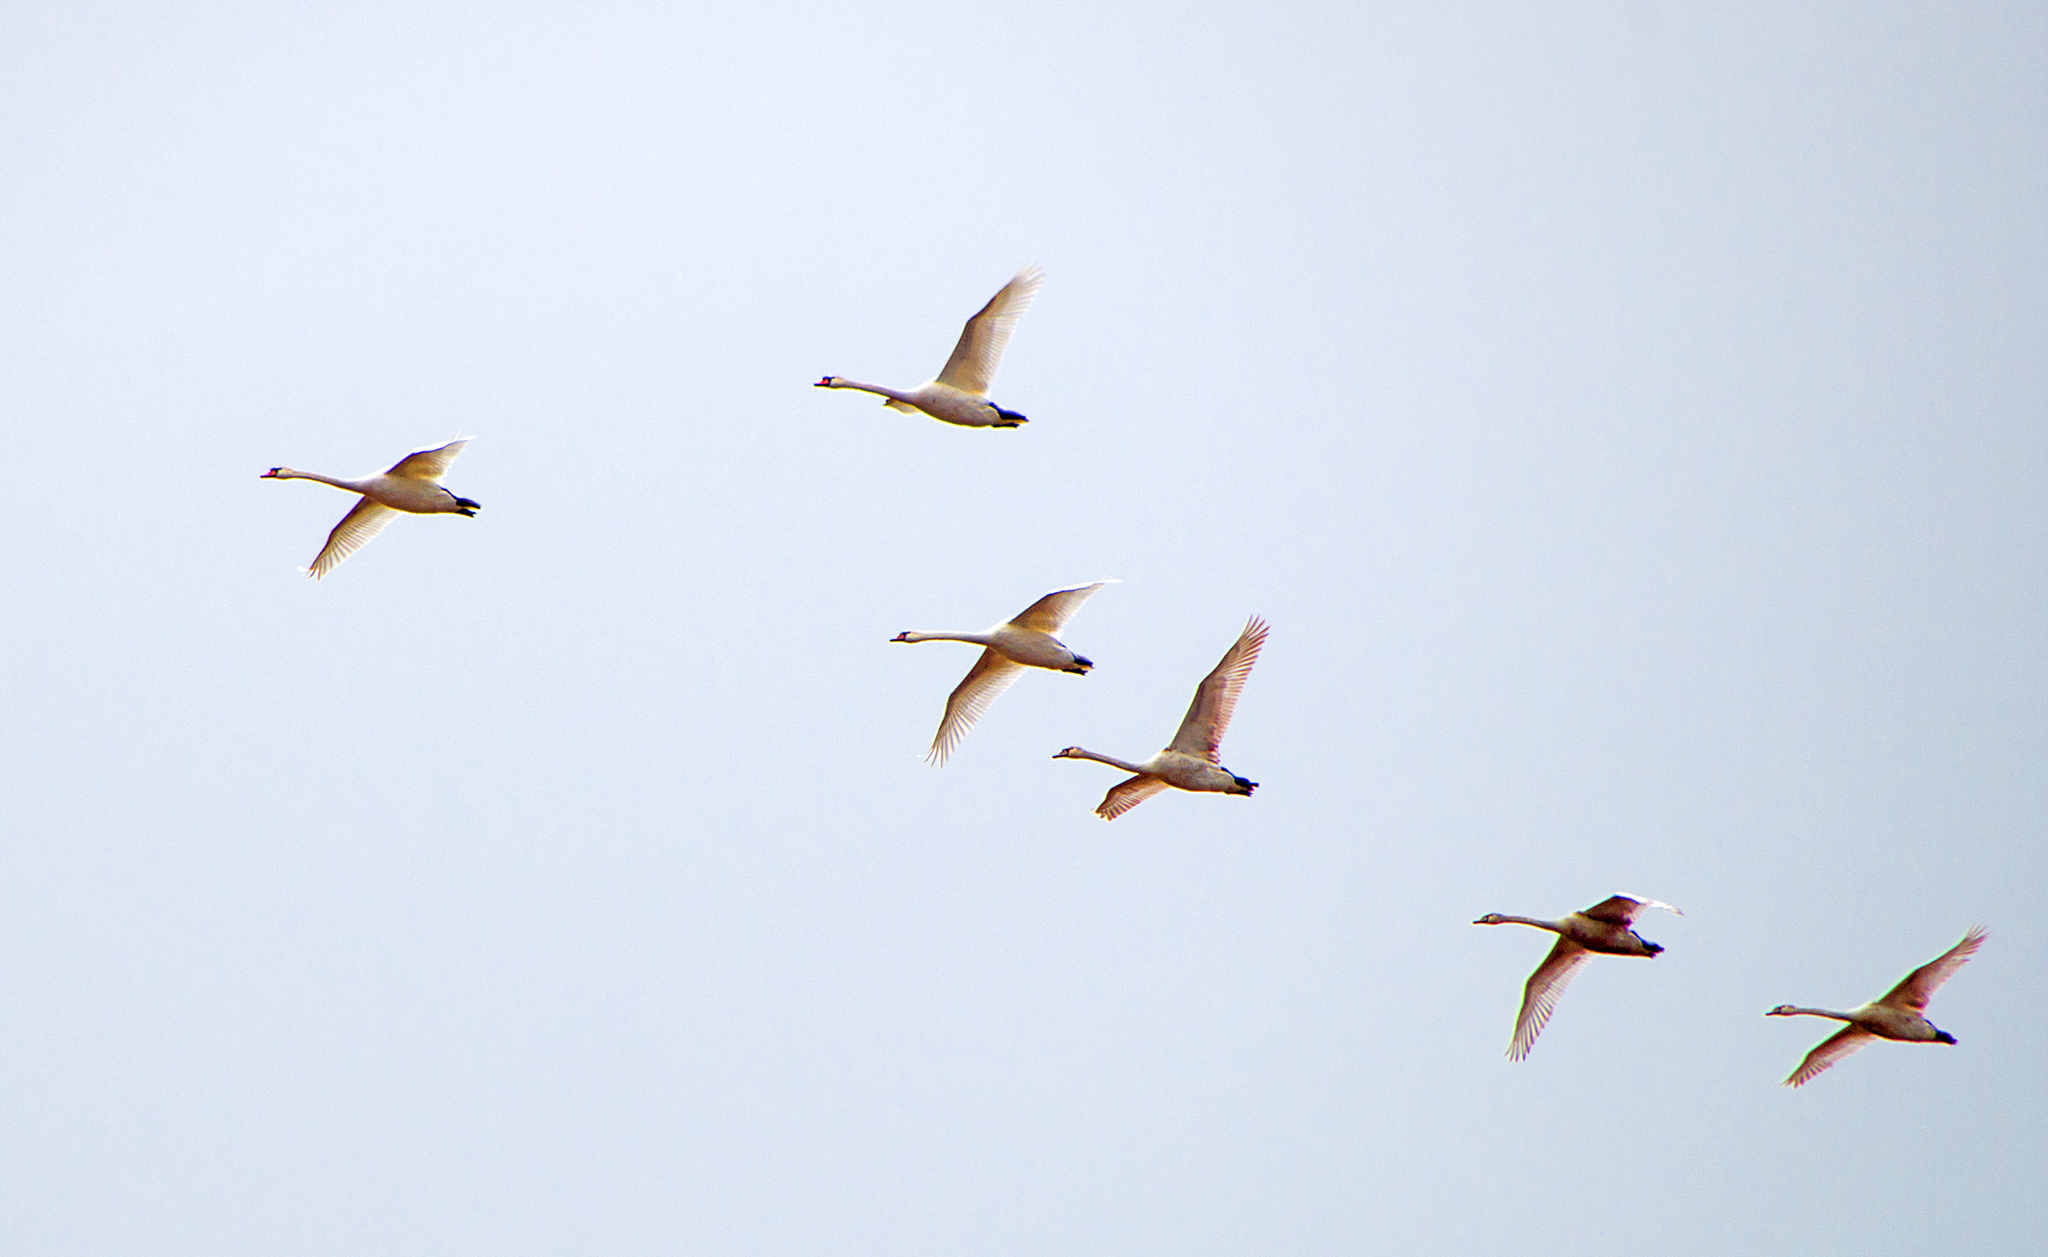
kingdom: Animalia
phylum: Chordata
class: Aves
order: Anseriformes
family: Anatidae
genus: Cygnus
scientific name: Cygnus olor
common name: Mute swan
